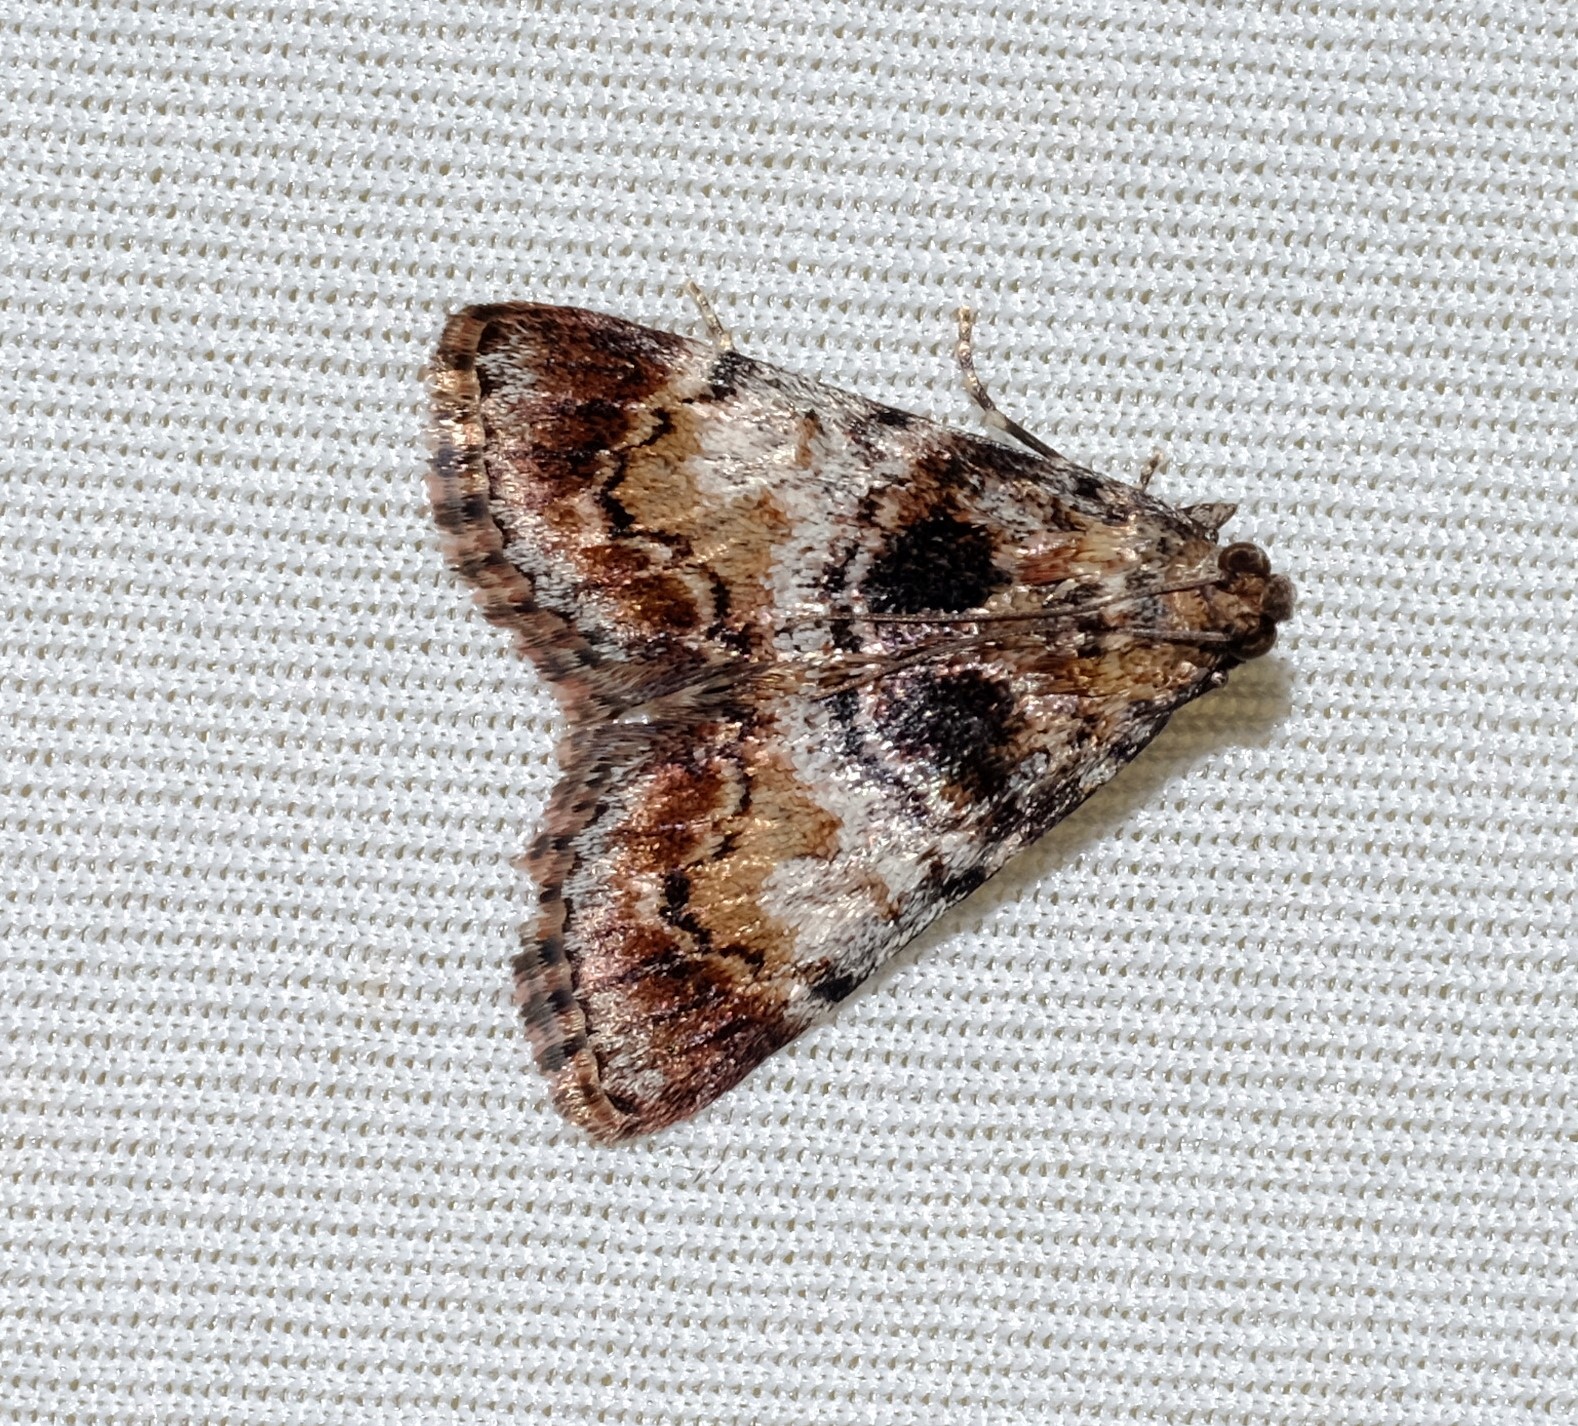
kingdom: Animalia
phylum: Arthropoda
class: Insecta
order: Lepidoptera
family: Pyralidae
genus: Orthaga
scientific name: Orthaga thyrisalis
